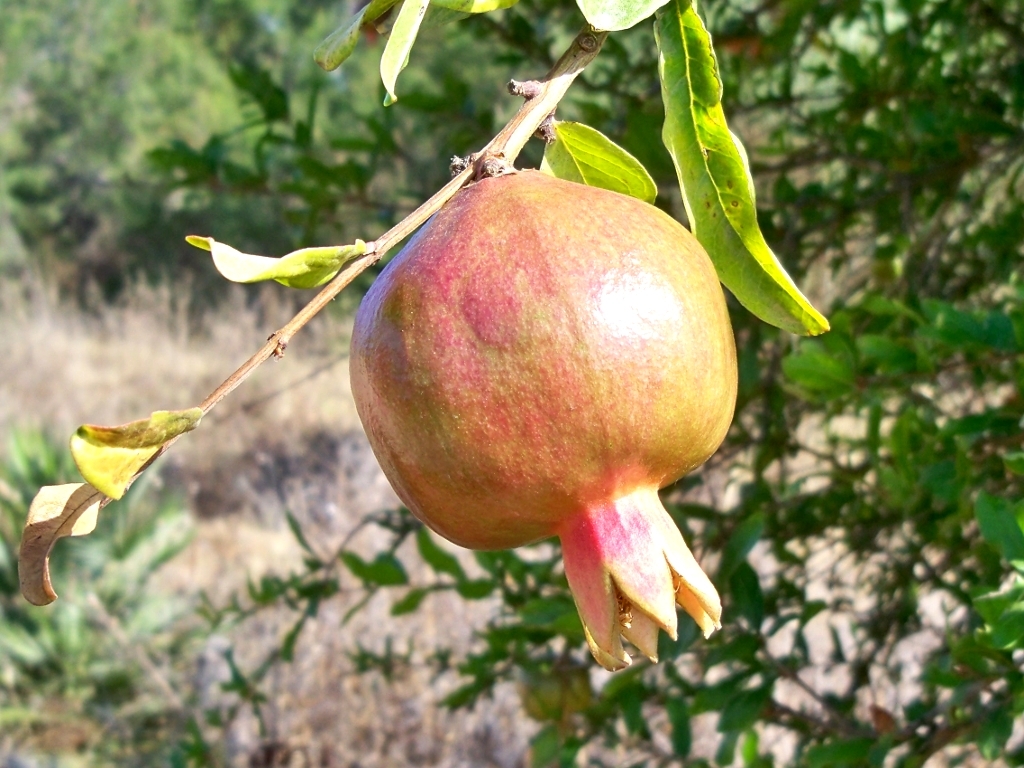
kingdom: Plantae
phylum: Tracheophyta
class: Magnoliopsida
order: Myrtales
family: Lythraceae
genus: Punica
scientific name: Punica granatum
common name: Pomegranate
